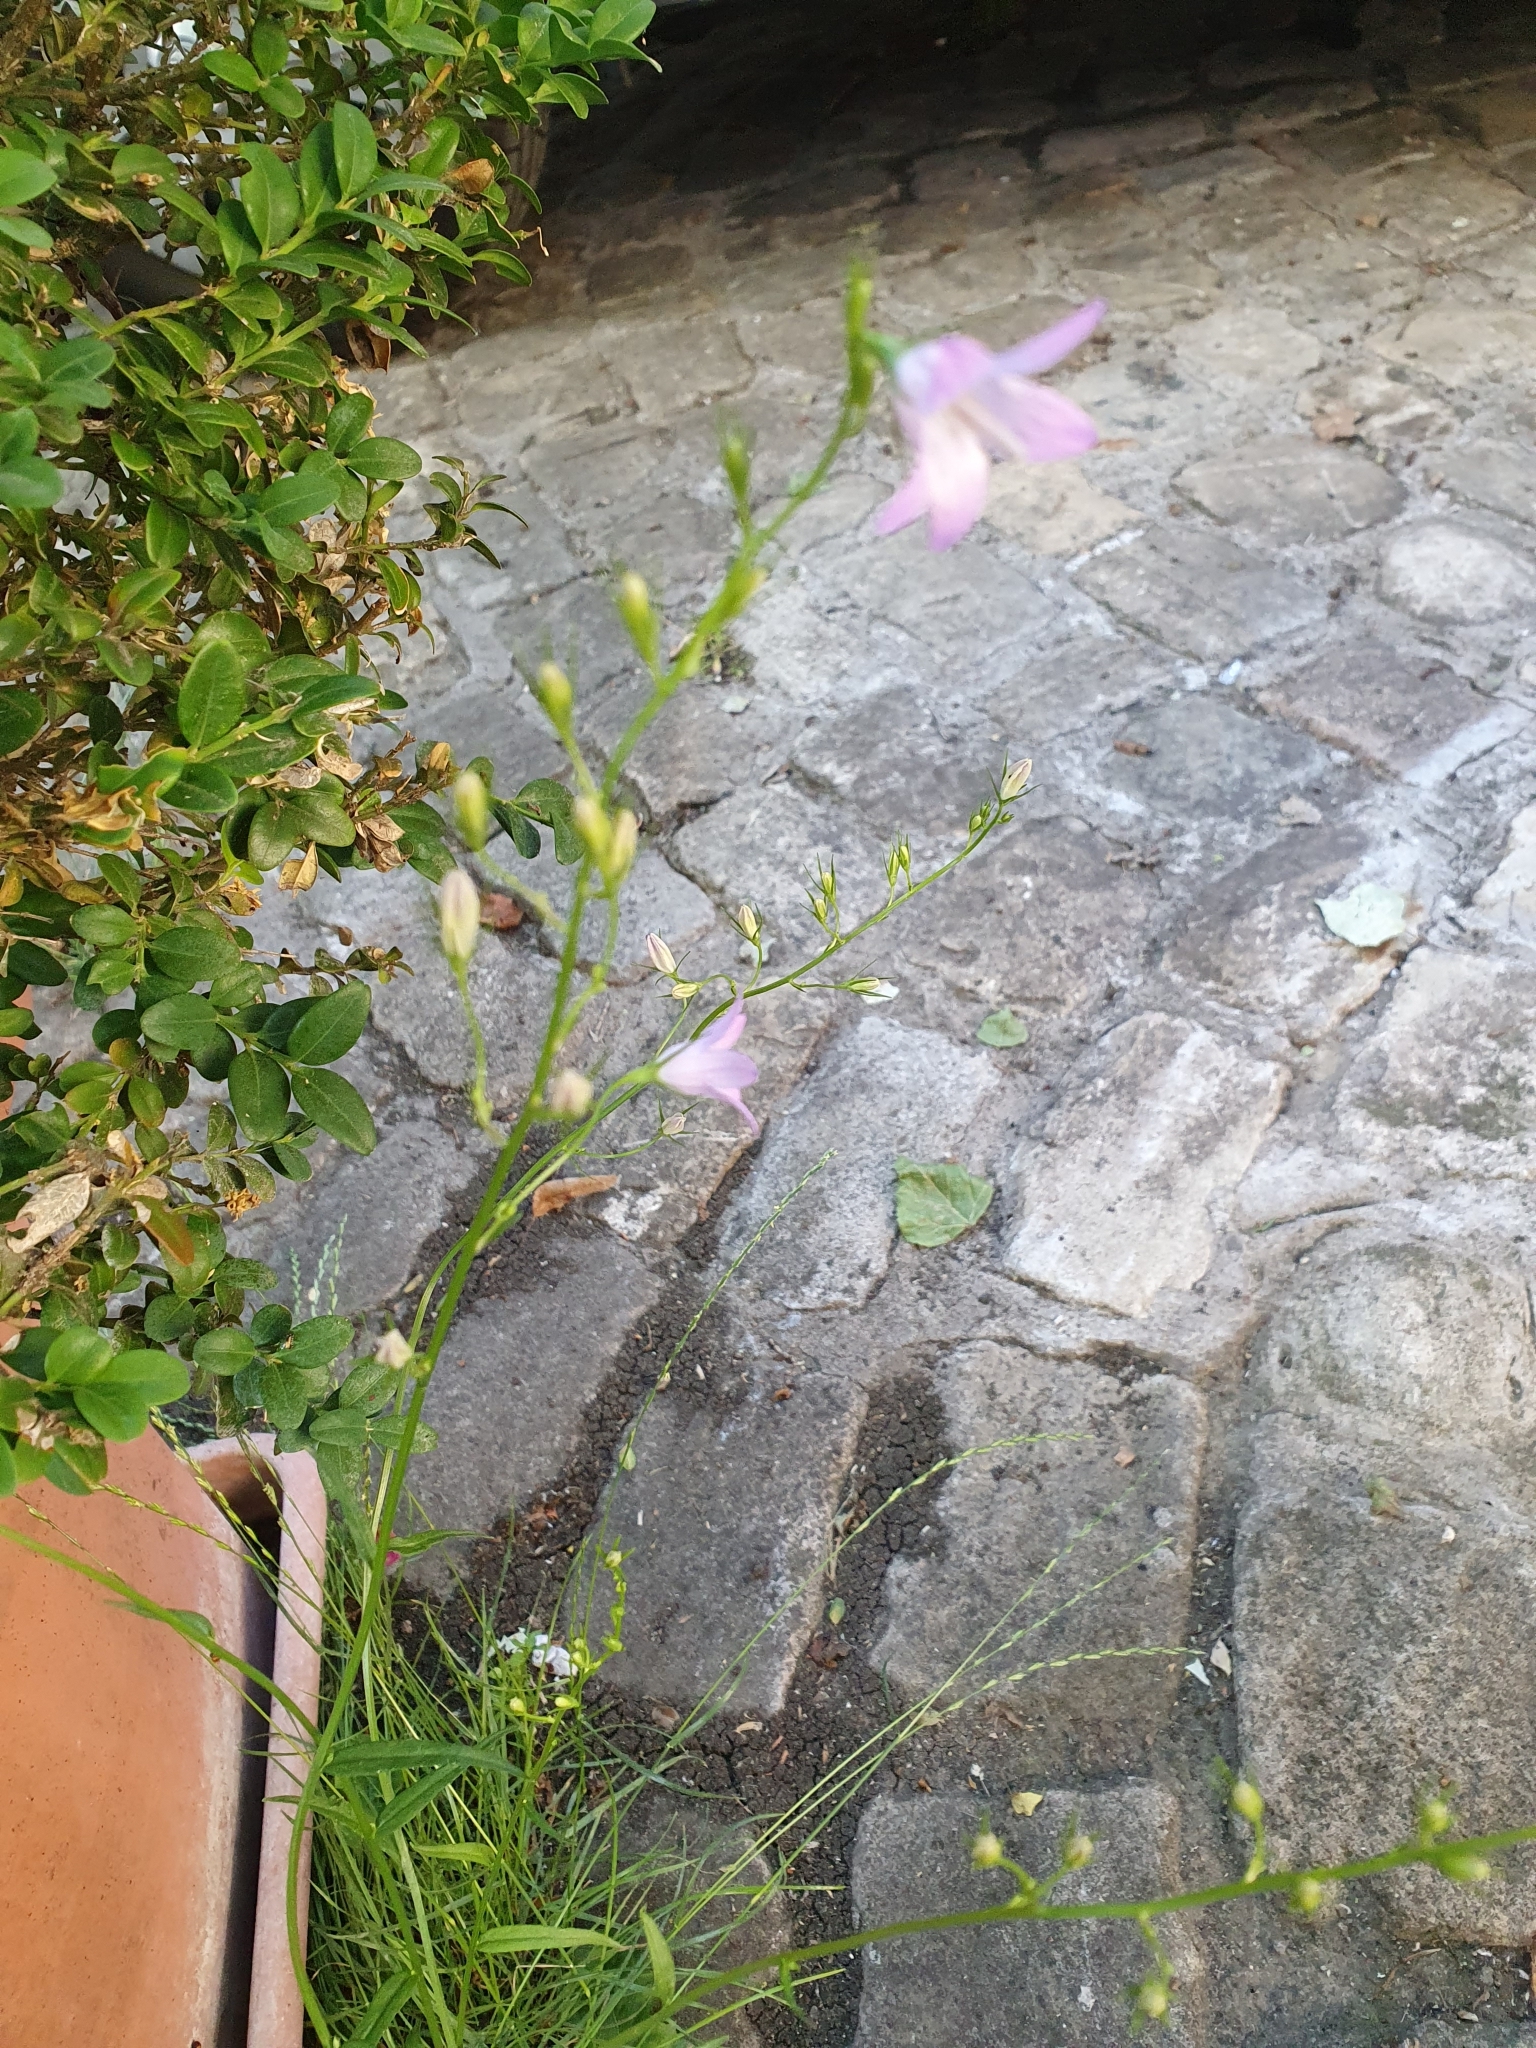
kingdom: Plantae
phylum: Tracheophyta
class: Magnoliopsida
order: Asterales
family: Campanulaceae
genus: Campanula
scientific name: Campanula rapunculus
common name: Rampion bellflower
